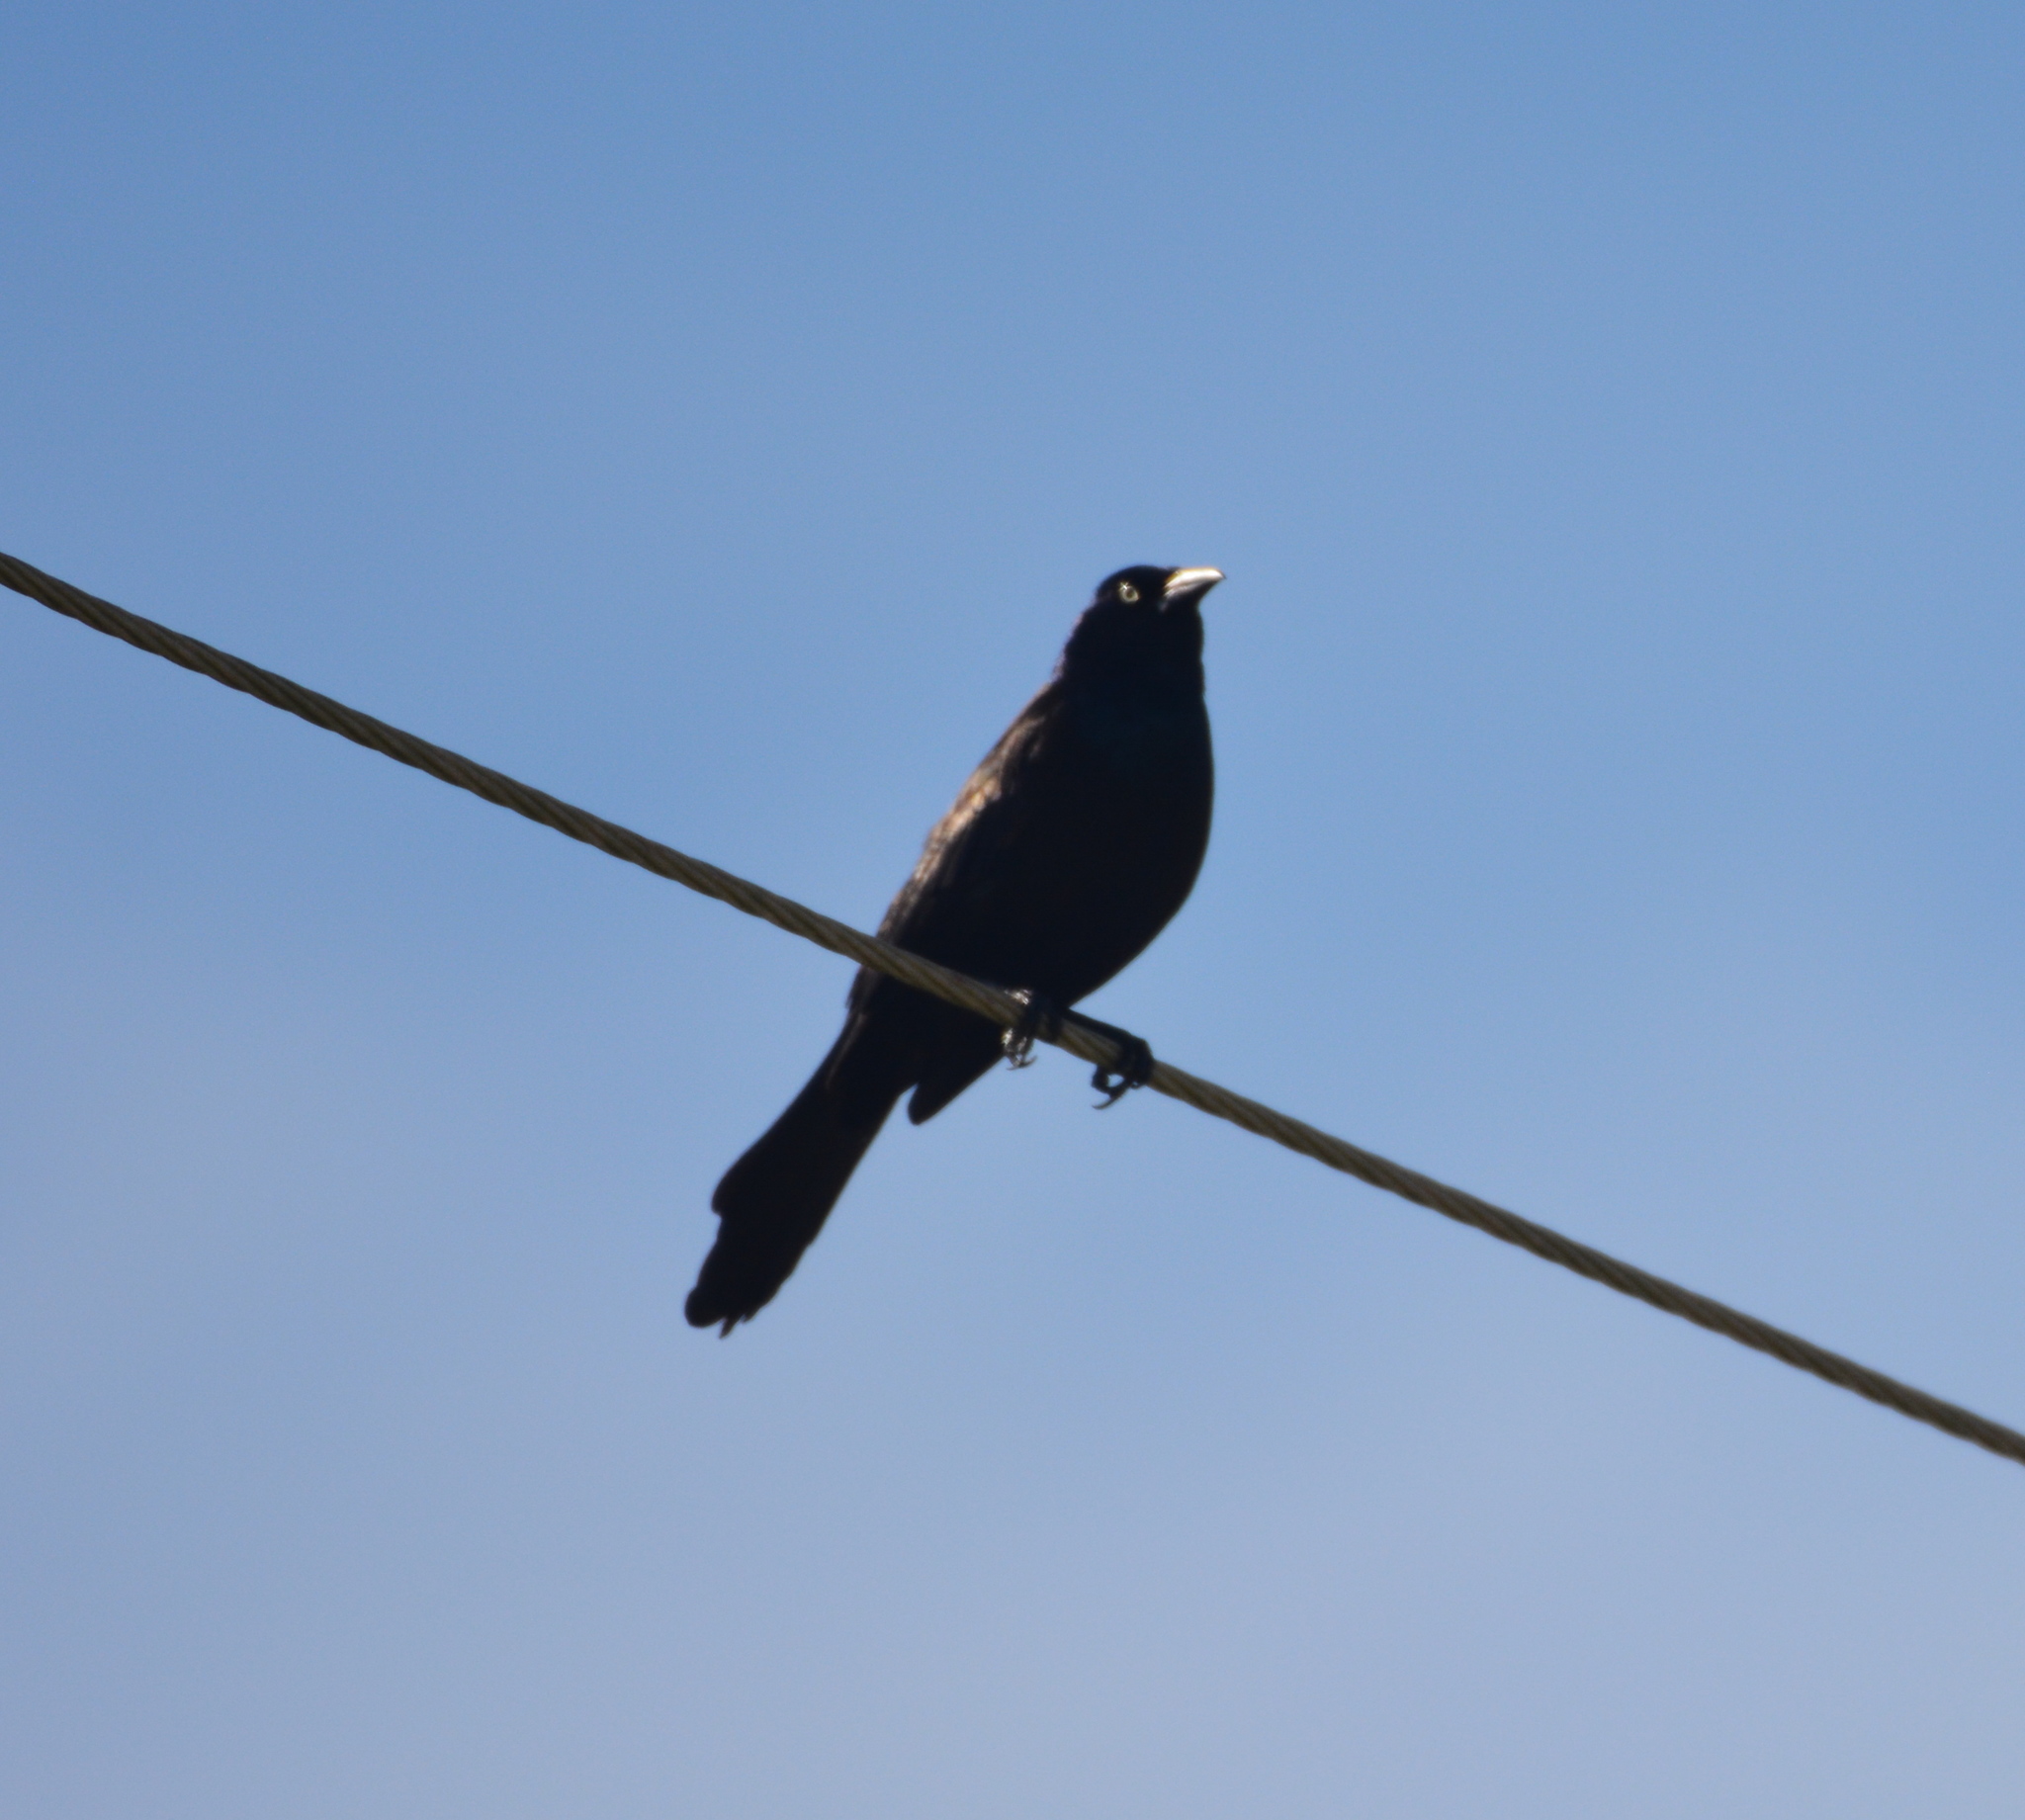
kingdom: Animalia
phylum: Chordata
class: Aves
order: Passeriformes
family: Icteridae
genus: Quiscalus
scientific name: Quiscalus quiscula
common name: Common grackle
